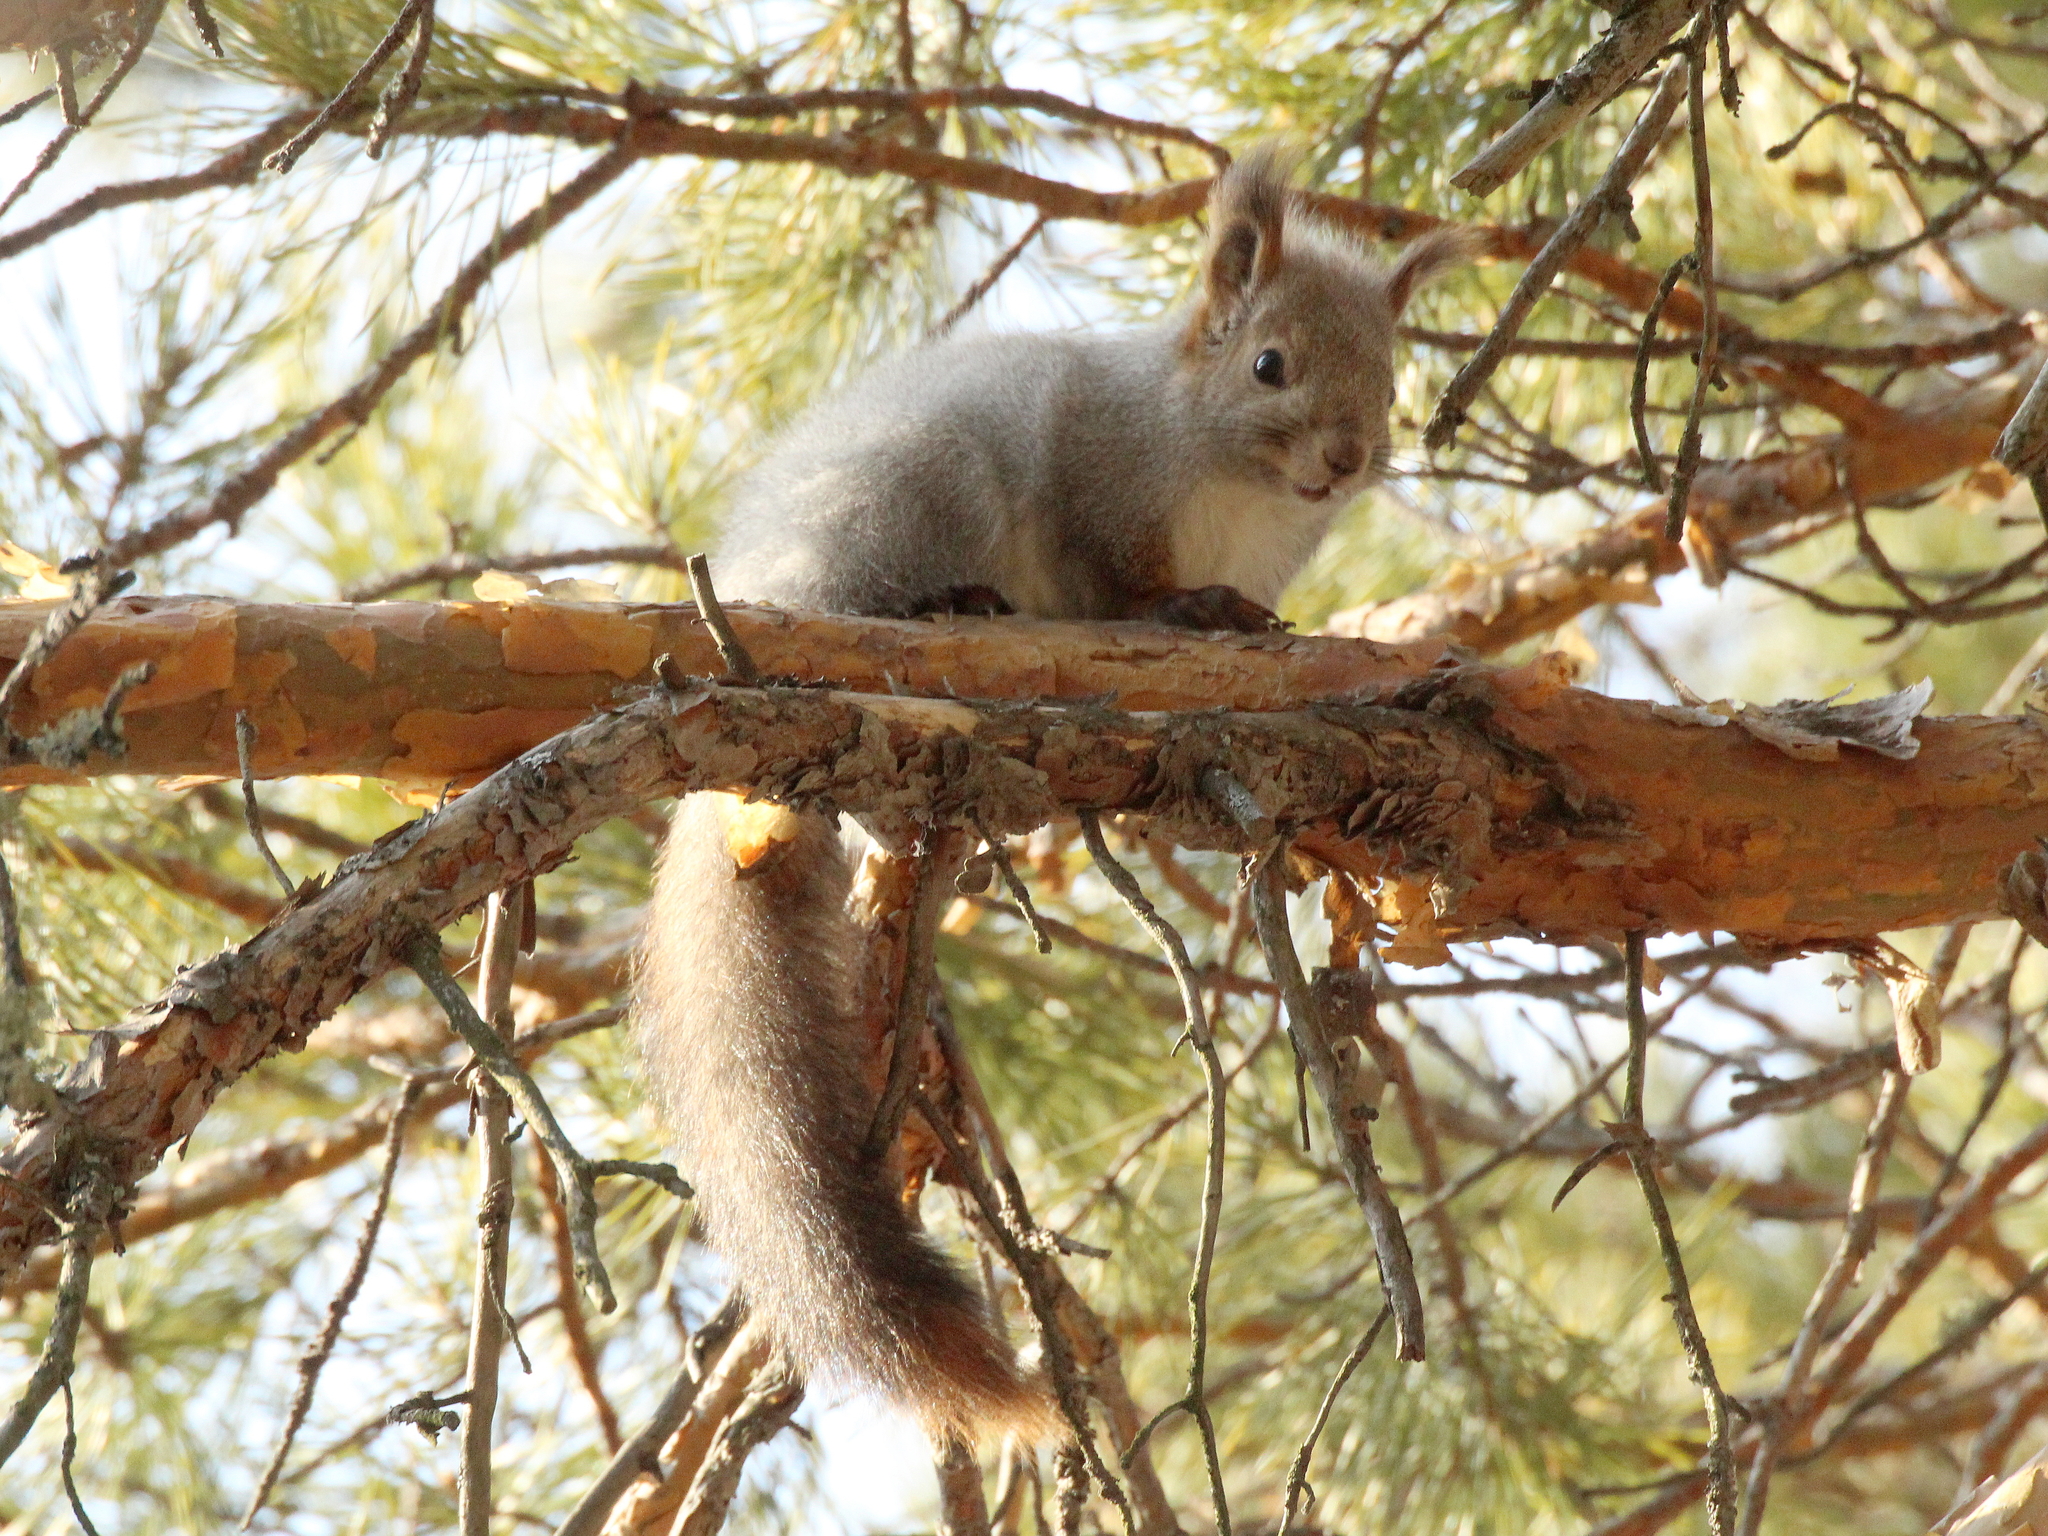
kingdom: Animalia
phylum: Chordata
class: Mammalia
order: Rodentia
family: Sciuridae
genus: Sciurus
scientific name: Sciurus vulgaris
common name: Eurasian red squirrel
